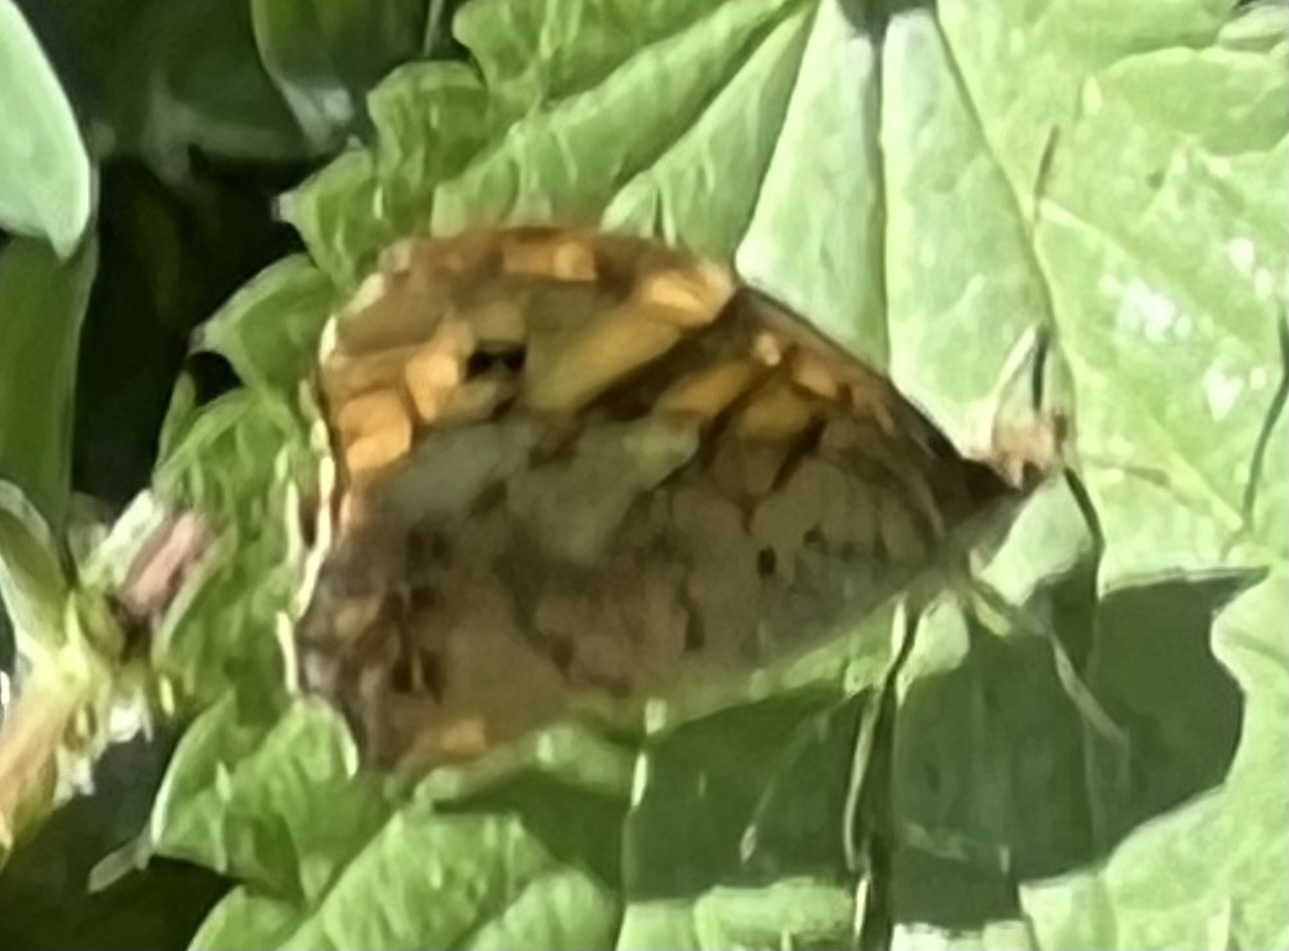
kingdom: Animalia
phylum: Arthropoda
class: Insecta
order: Lepidoptera
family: Nymphalidae
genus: Pararge
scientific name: Pararge aegeria
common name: Speckled wood
